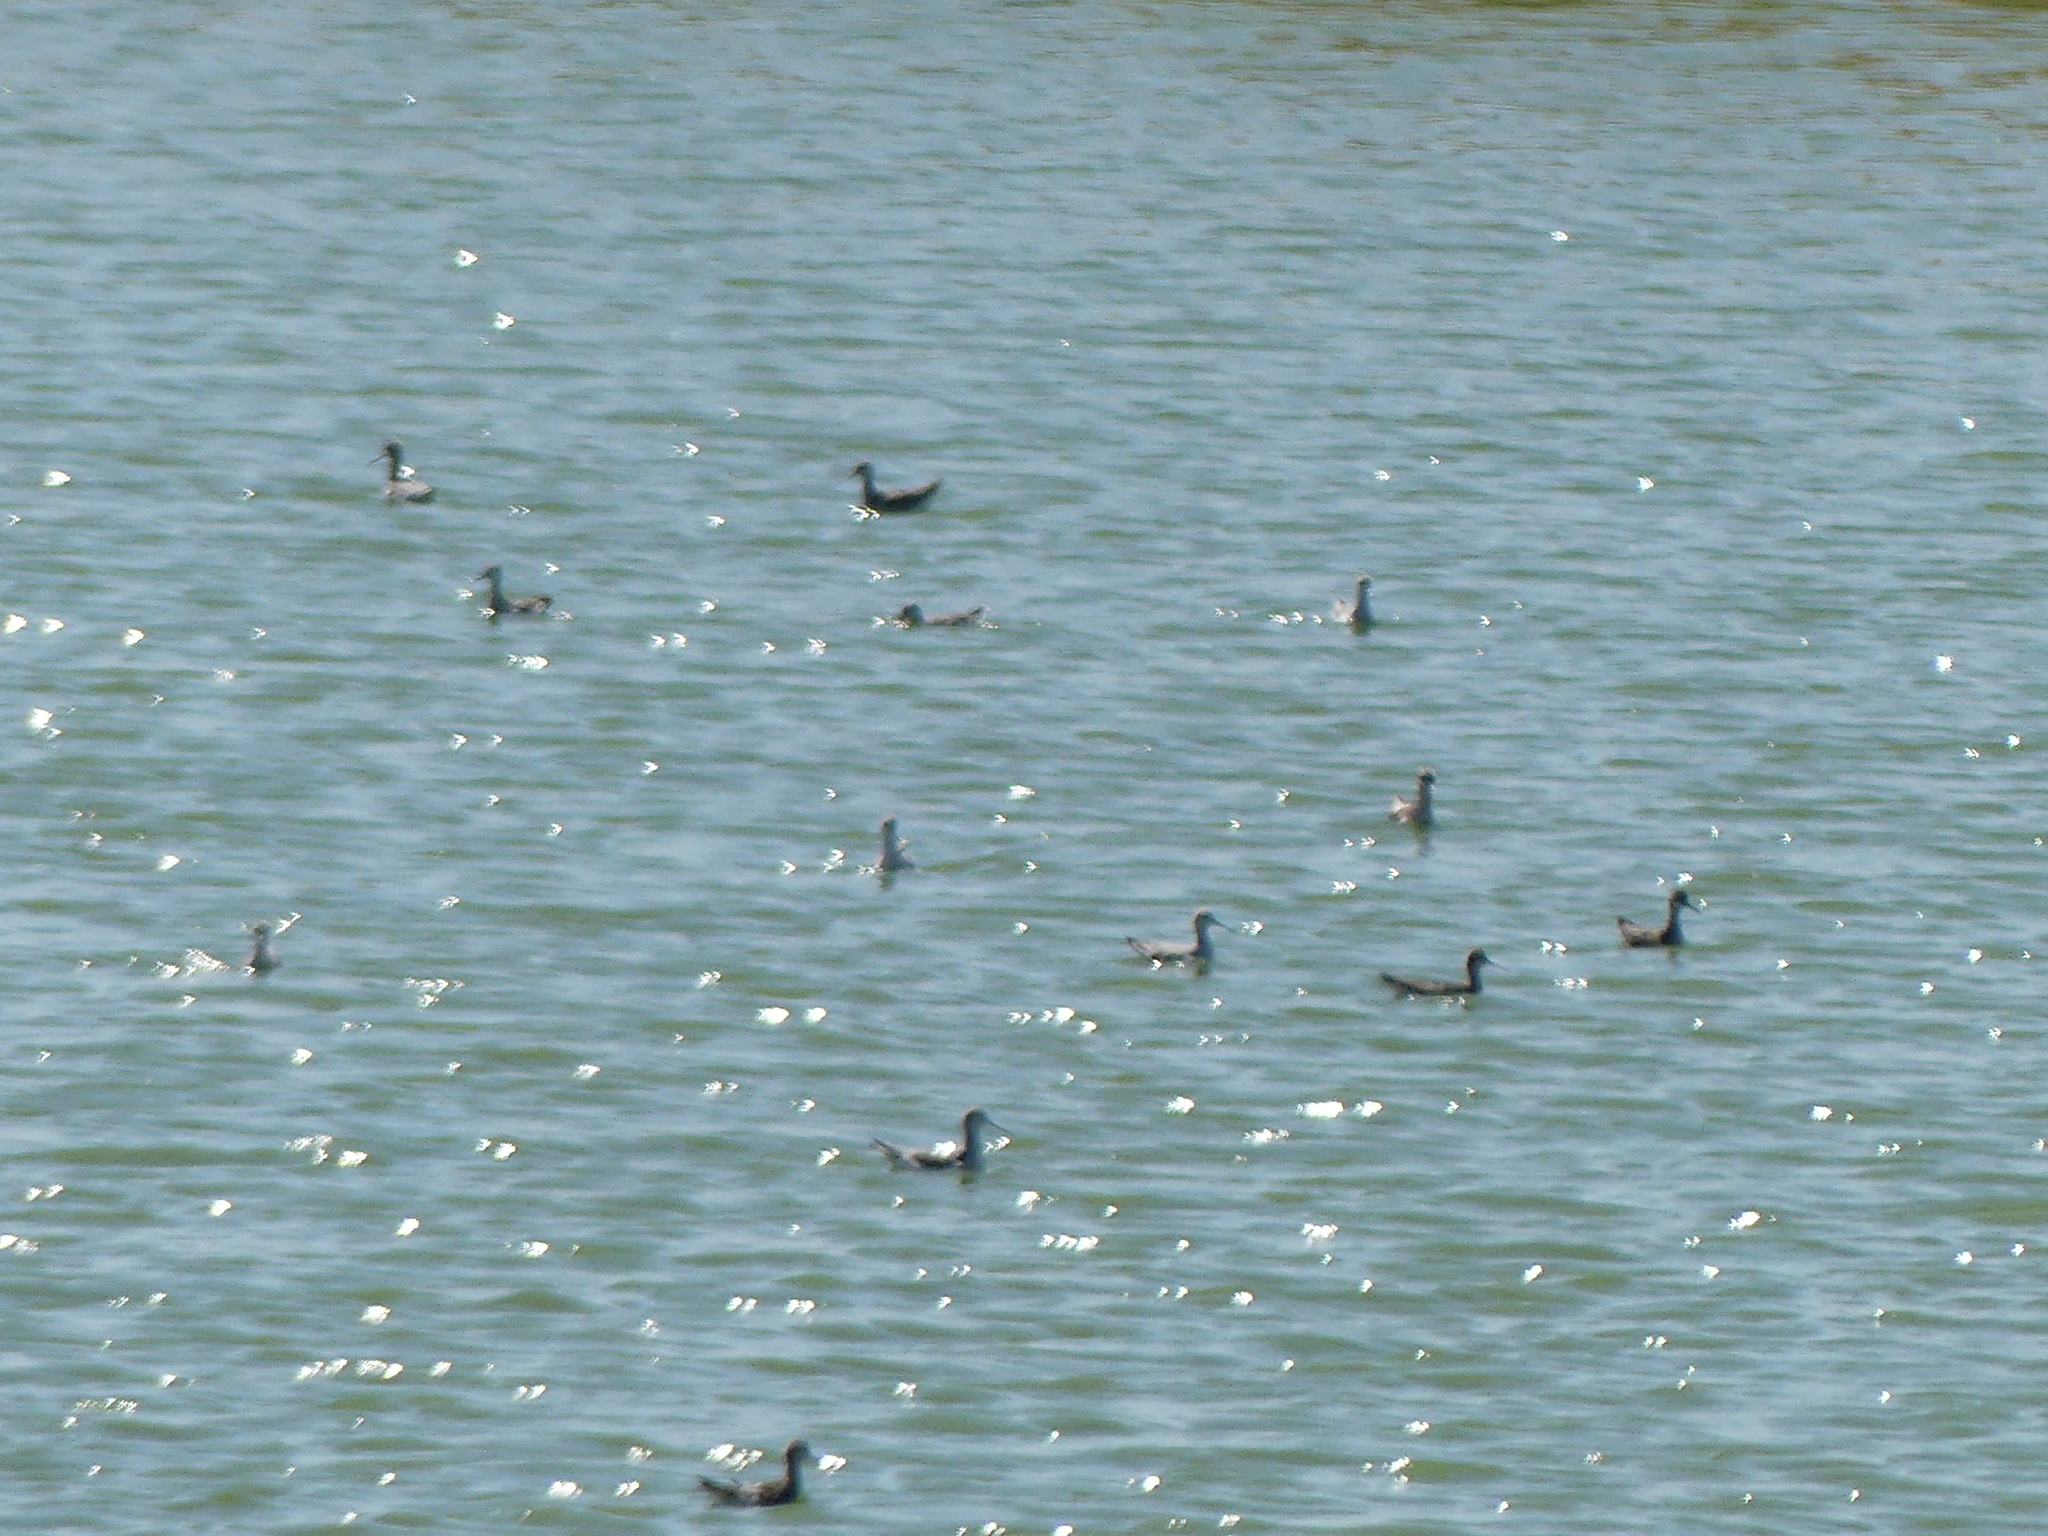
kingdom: Animalia
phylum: Chordata
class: Aves
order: Charadriiformes
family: Scolopacidae
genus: Phalaropus
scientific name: Phalaropus tricolor
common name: Wilson's phalarope
